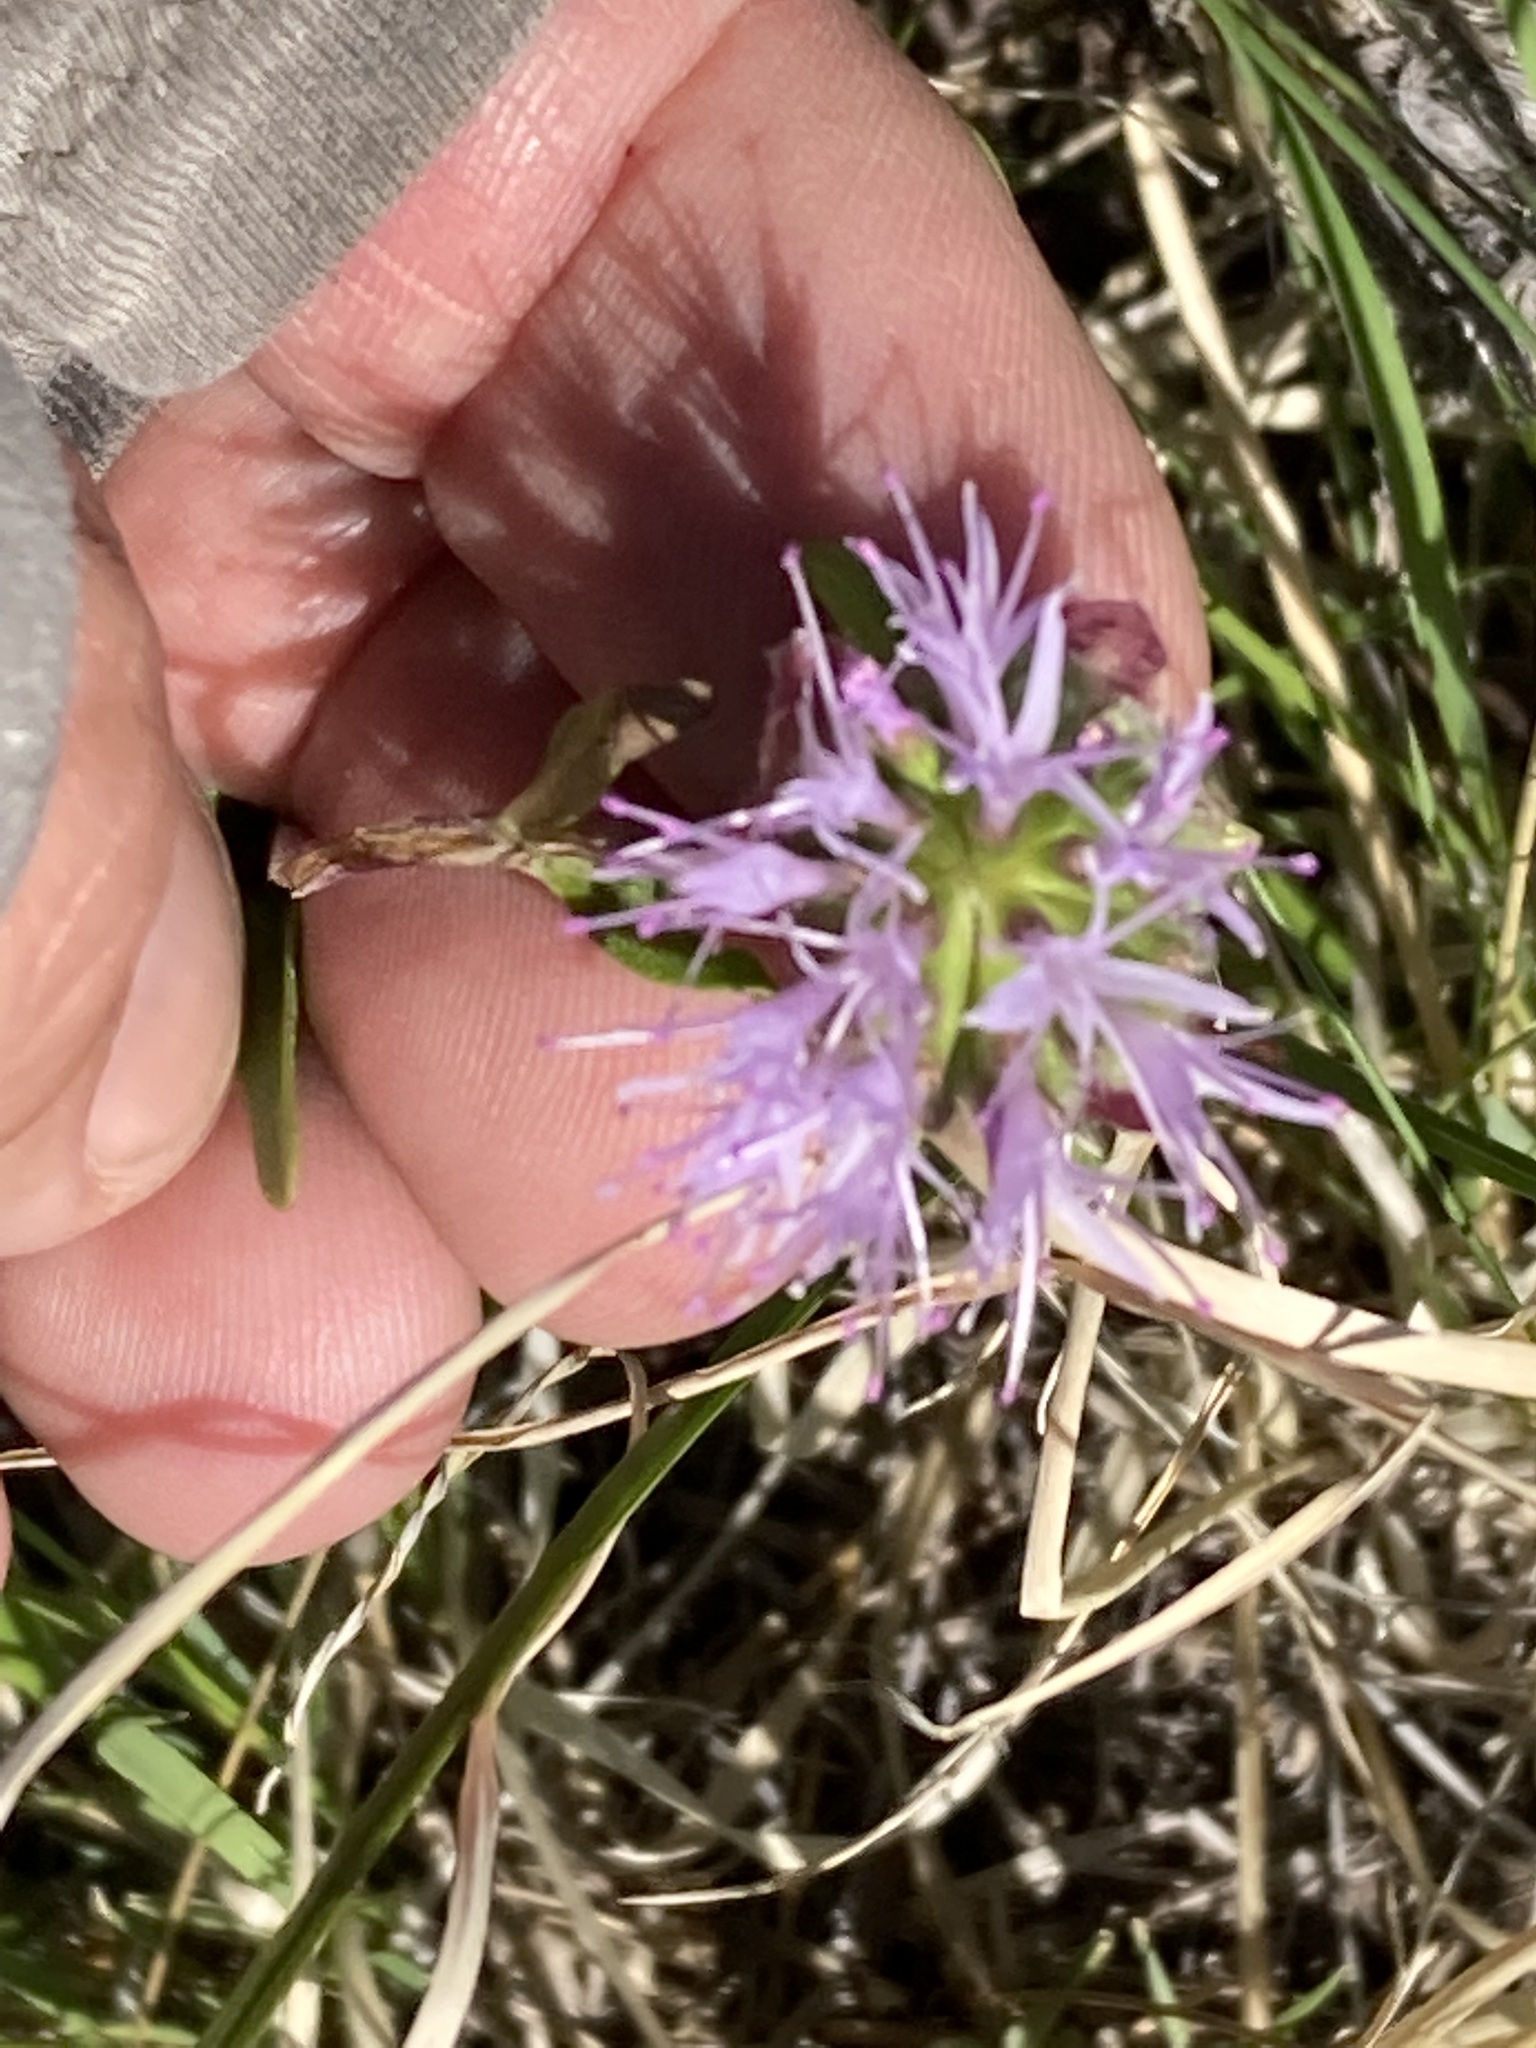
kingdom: Plantae
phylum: Tracheophyta
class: Magnoliopsida
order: Lamiales
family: Lamiaceae
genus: Monardella
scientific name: Monardella odoratissima
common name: Pacific monardella
